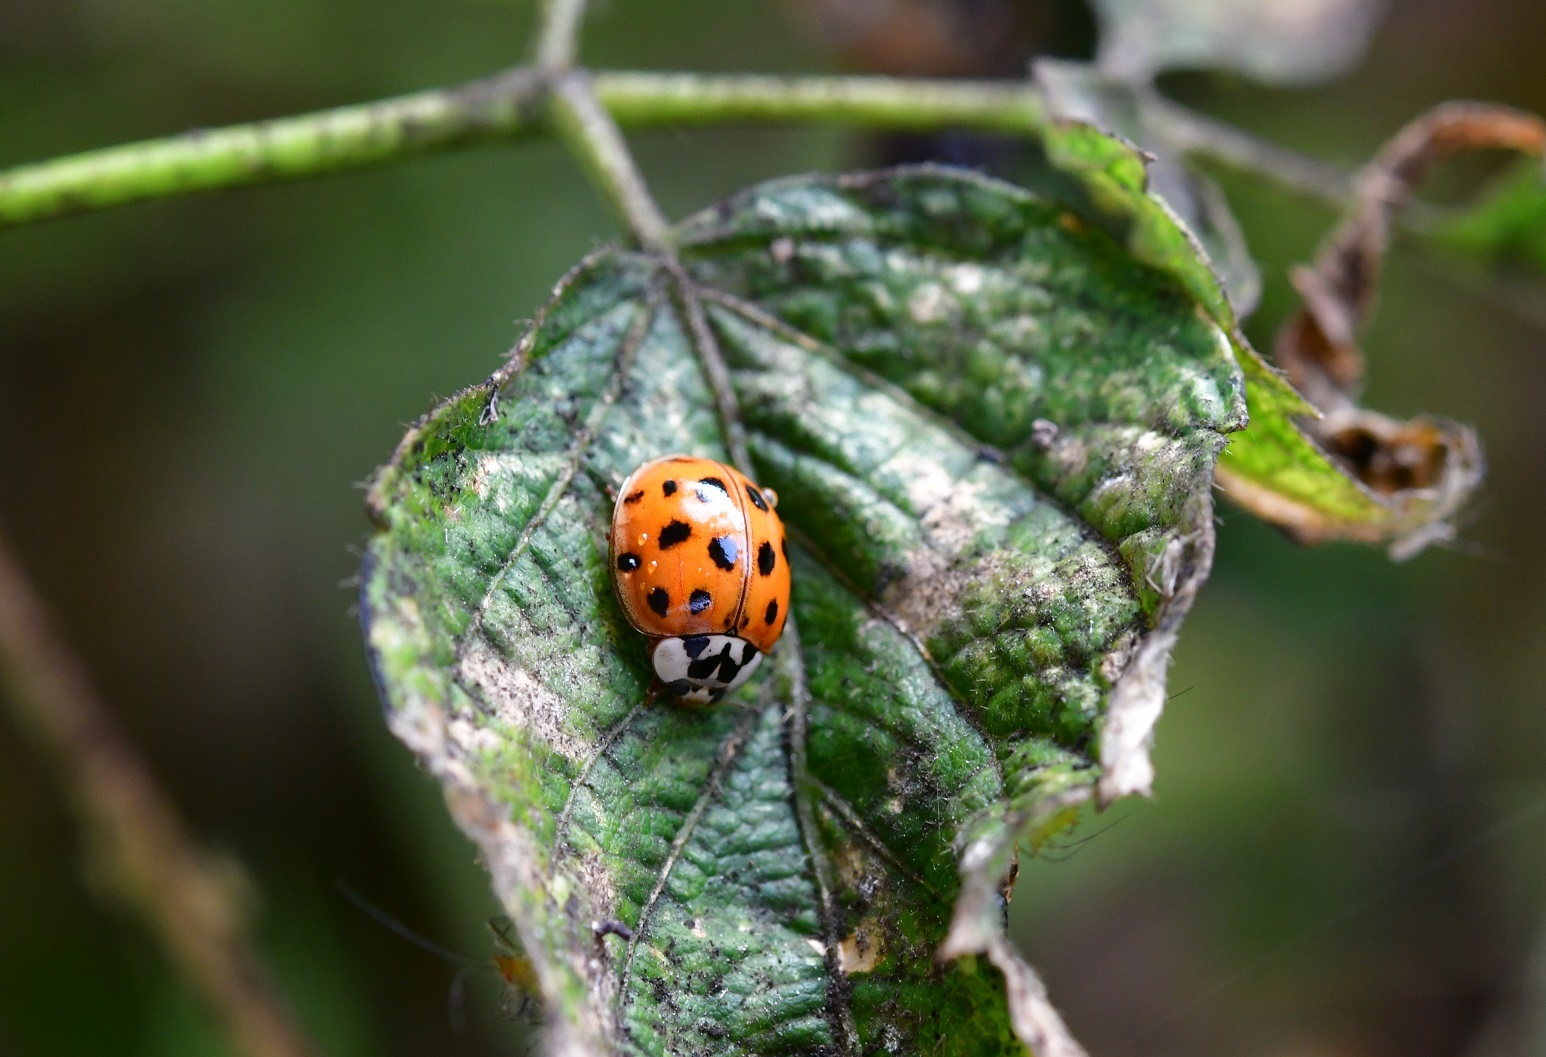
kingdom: Animalia
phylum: Arthropoda
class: Insecta
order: Coleoptera
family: Coccinellidae
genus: Harmonia
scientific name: Harmonia axyridis
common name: Harlequin ladybird
